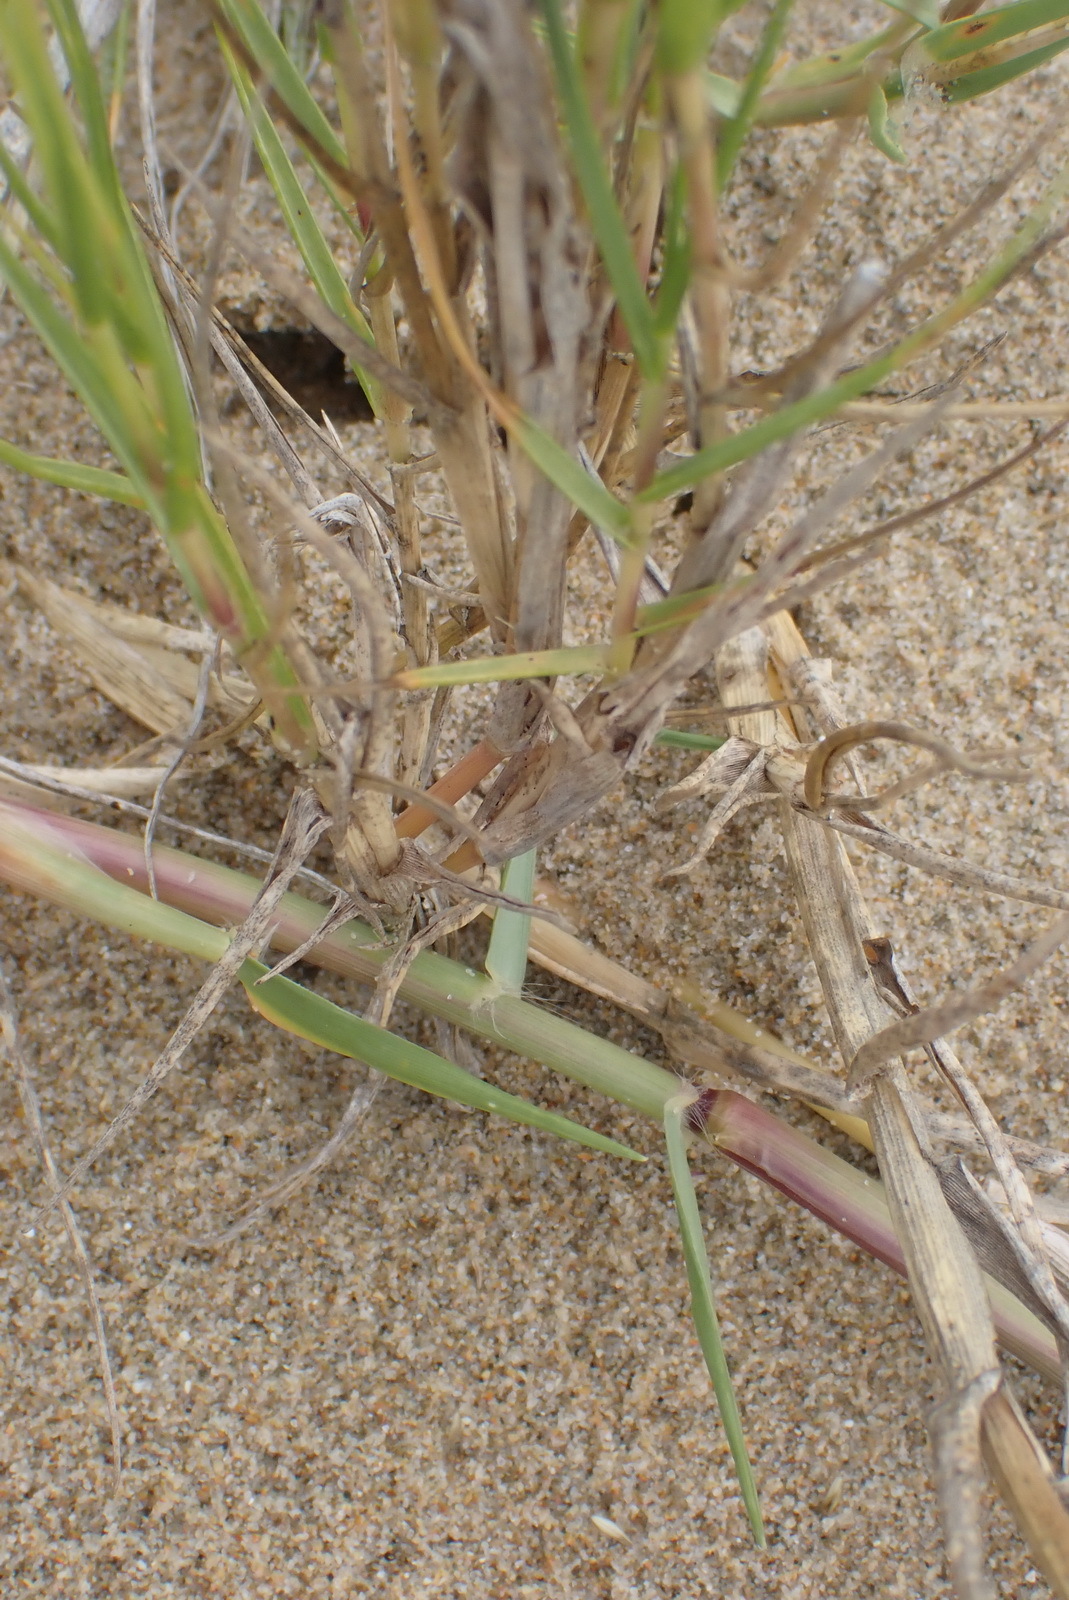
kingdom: Plantae
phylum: Tracheophyta
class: Liliopsida
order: Poales
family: Poaceae
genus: Sporobolus
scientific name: Sporobolus virginicus
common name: Beach dropseed
